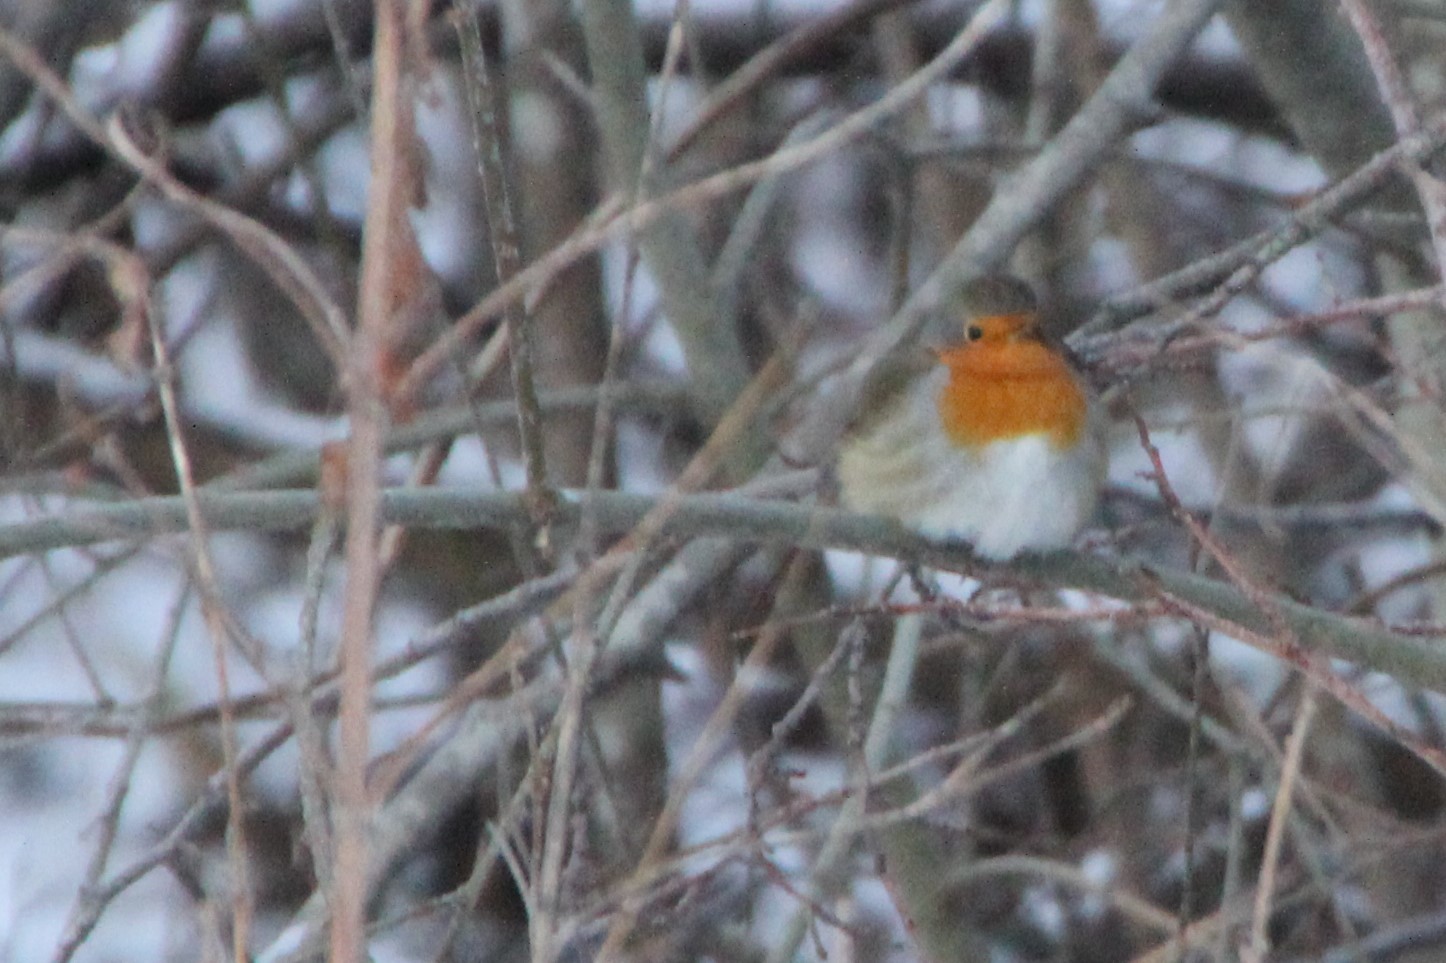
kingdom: Animalia
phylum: Chordata
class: Aves
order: Passeriformes
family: Muscicapidae
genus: Erithacus
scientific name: Erithacus rubecula
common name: European robin
